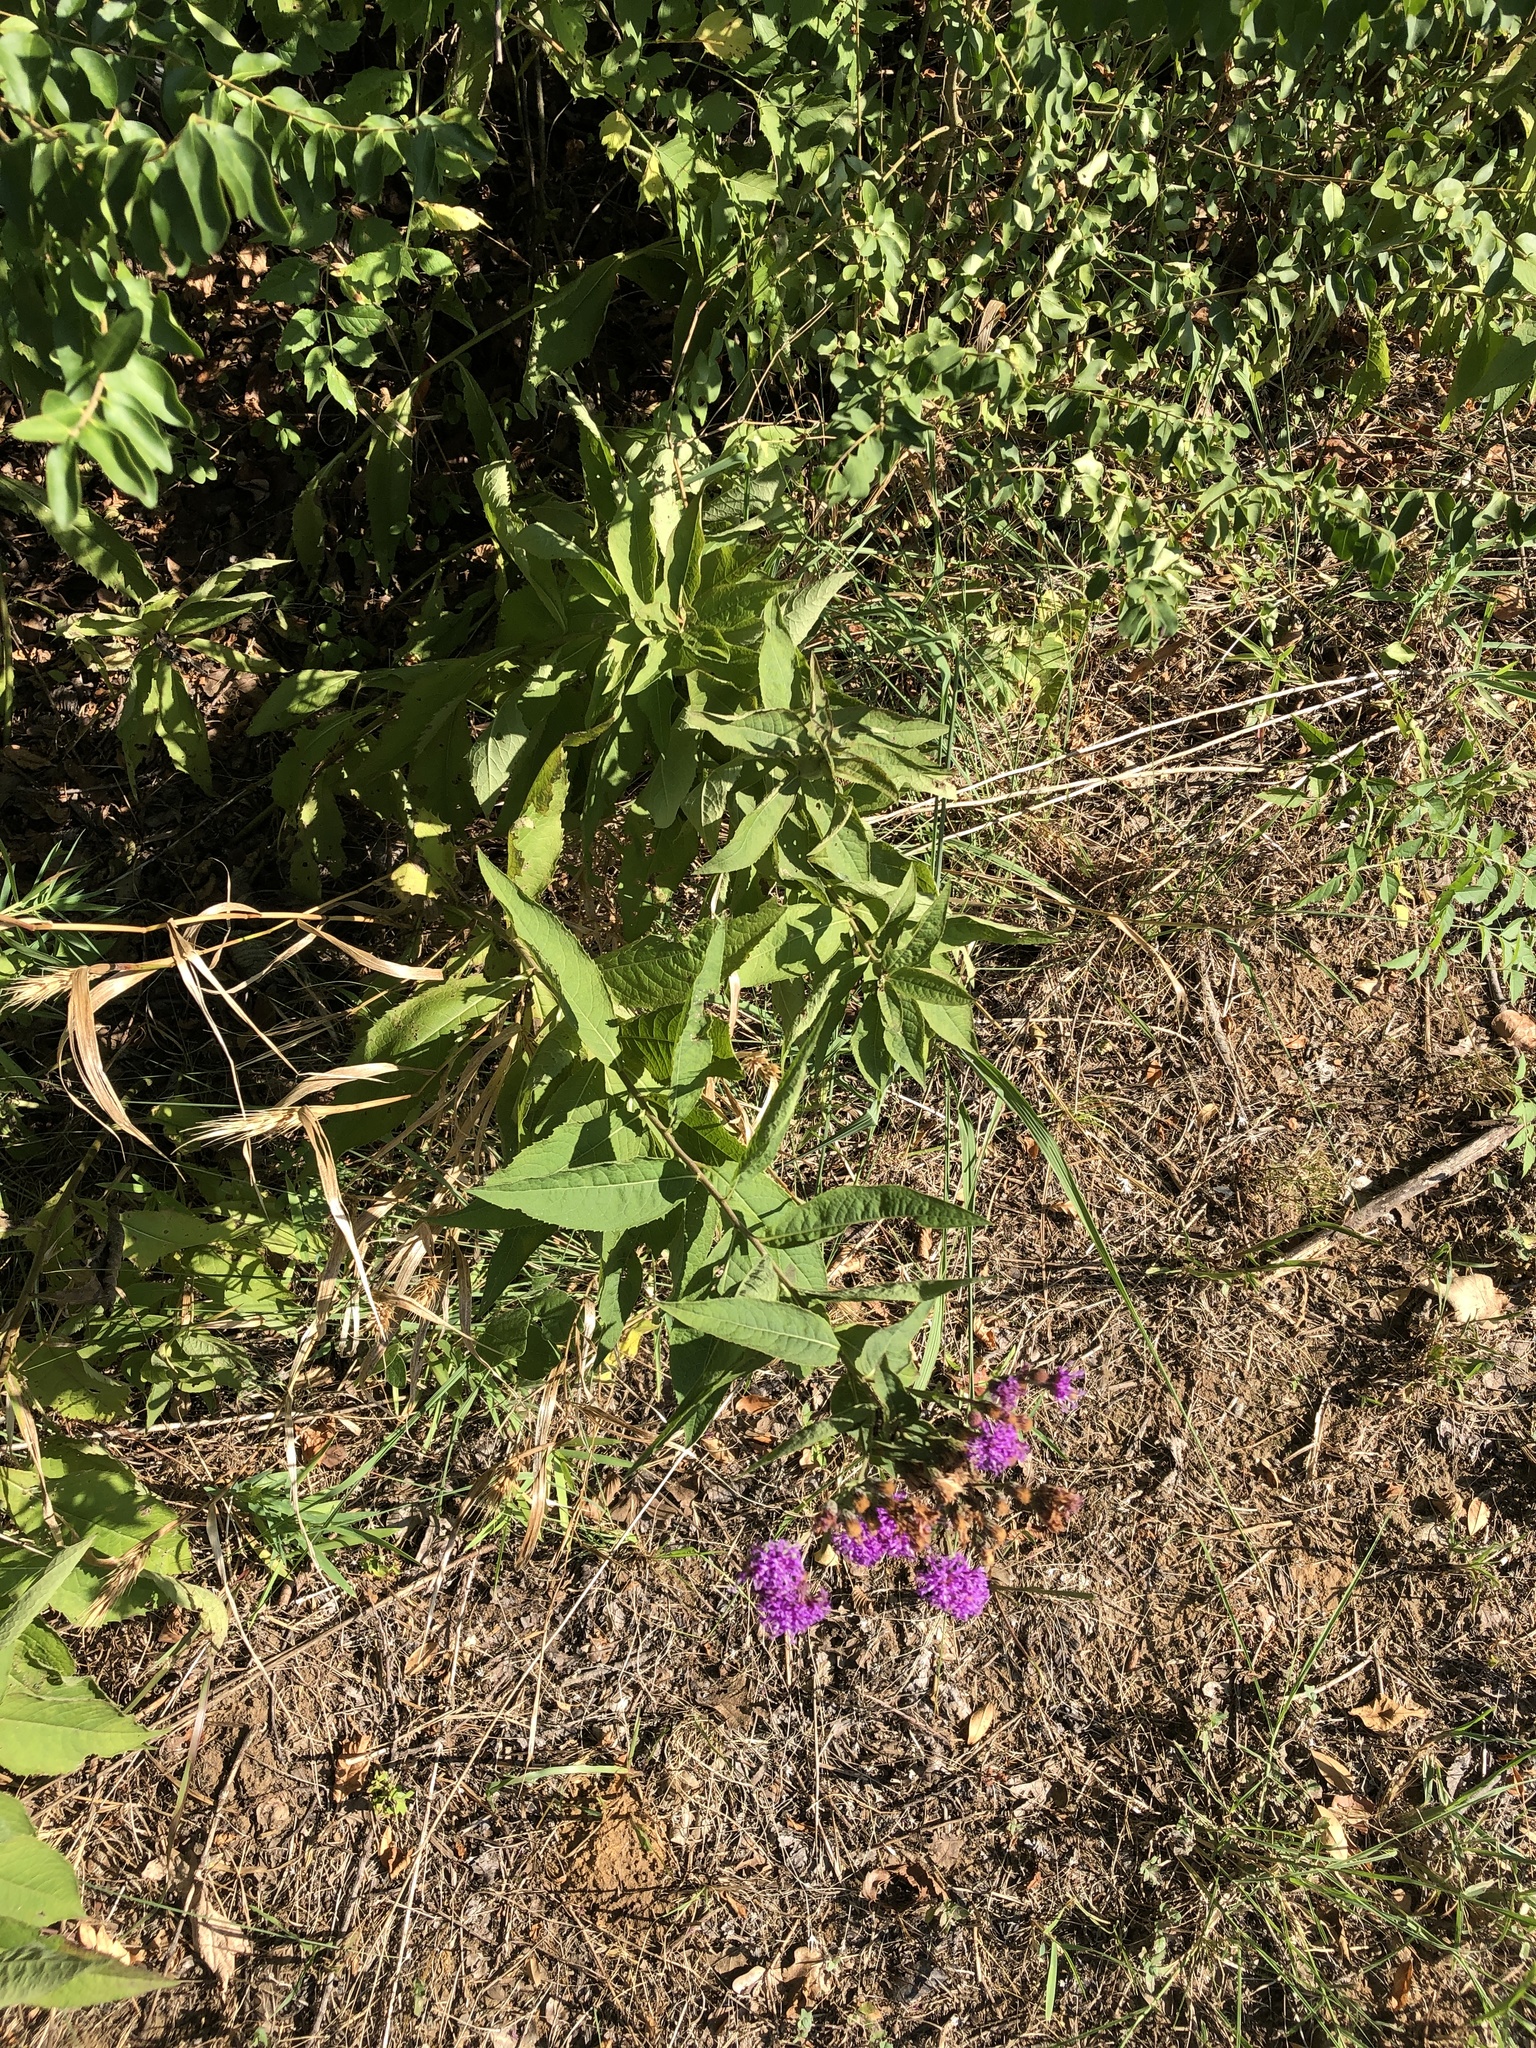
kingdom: Plantae
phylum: Tracheophyta
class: Magnoliopsida
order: Asterales
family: Asteraceae
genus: Vernonia
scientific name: Vernonia baldwinii
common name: Western ironweed
